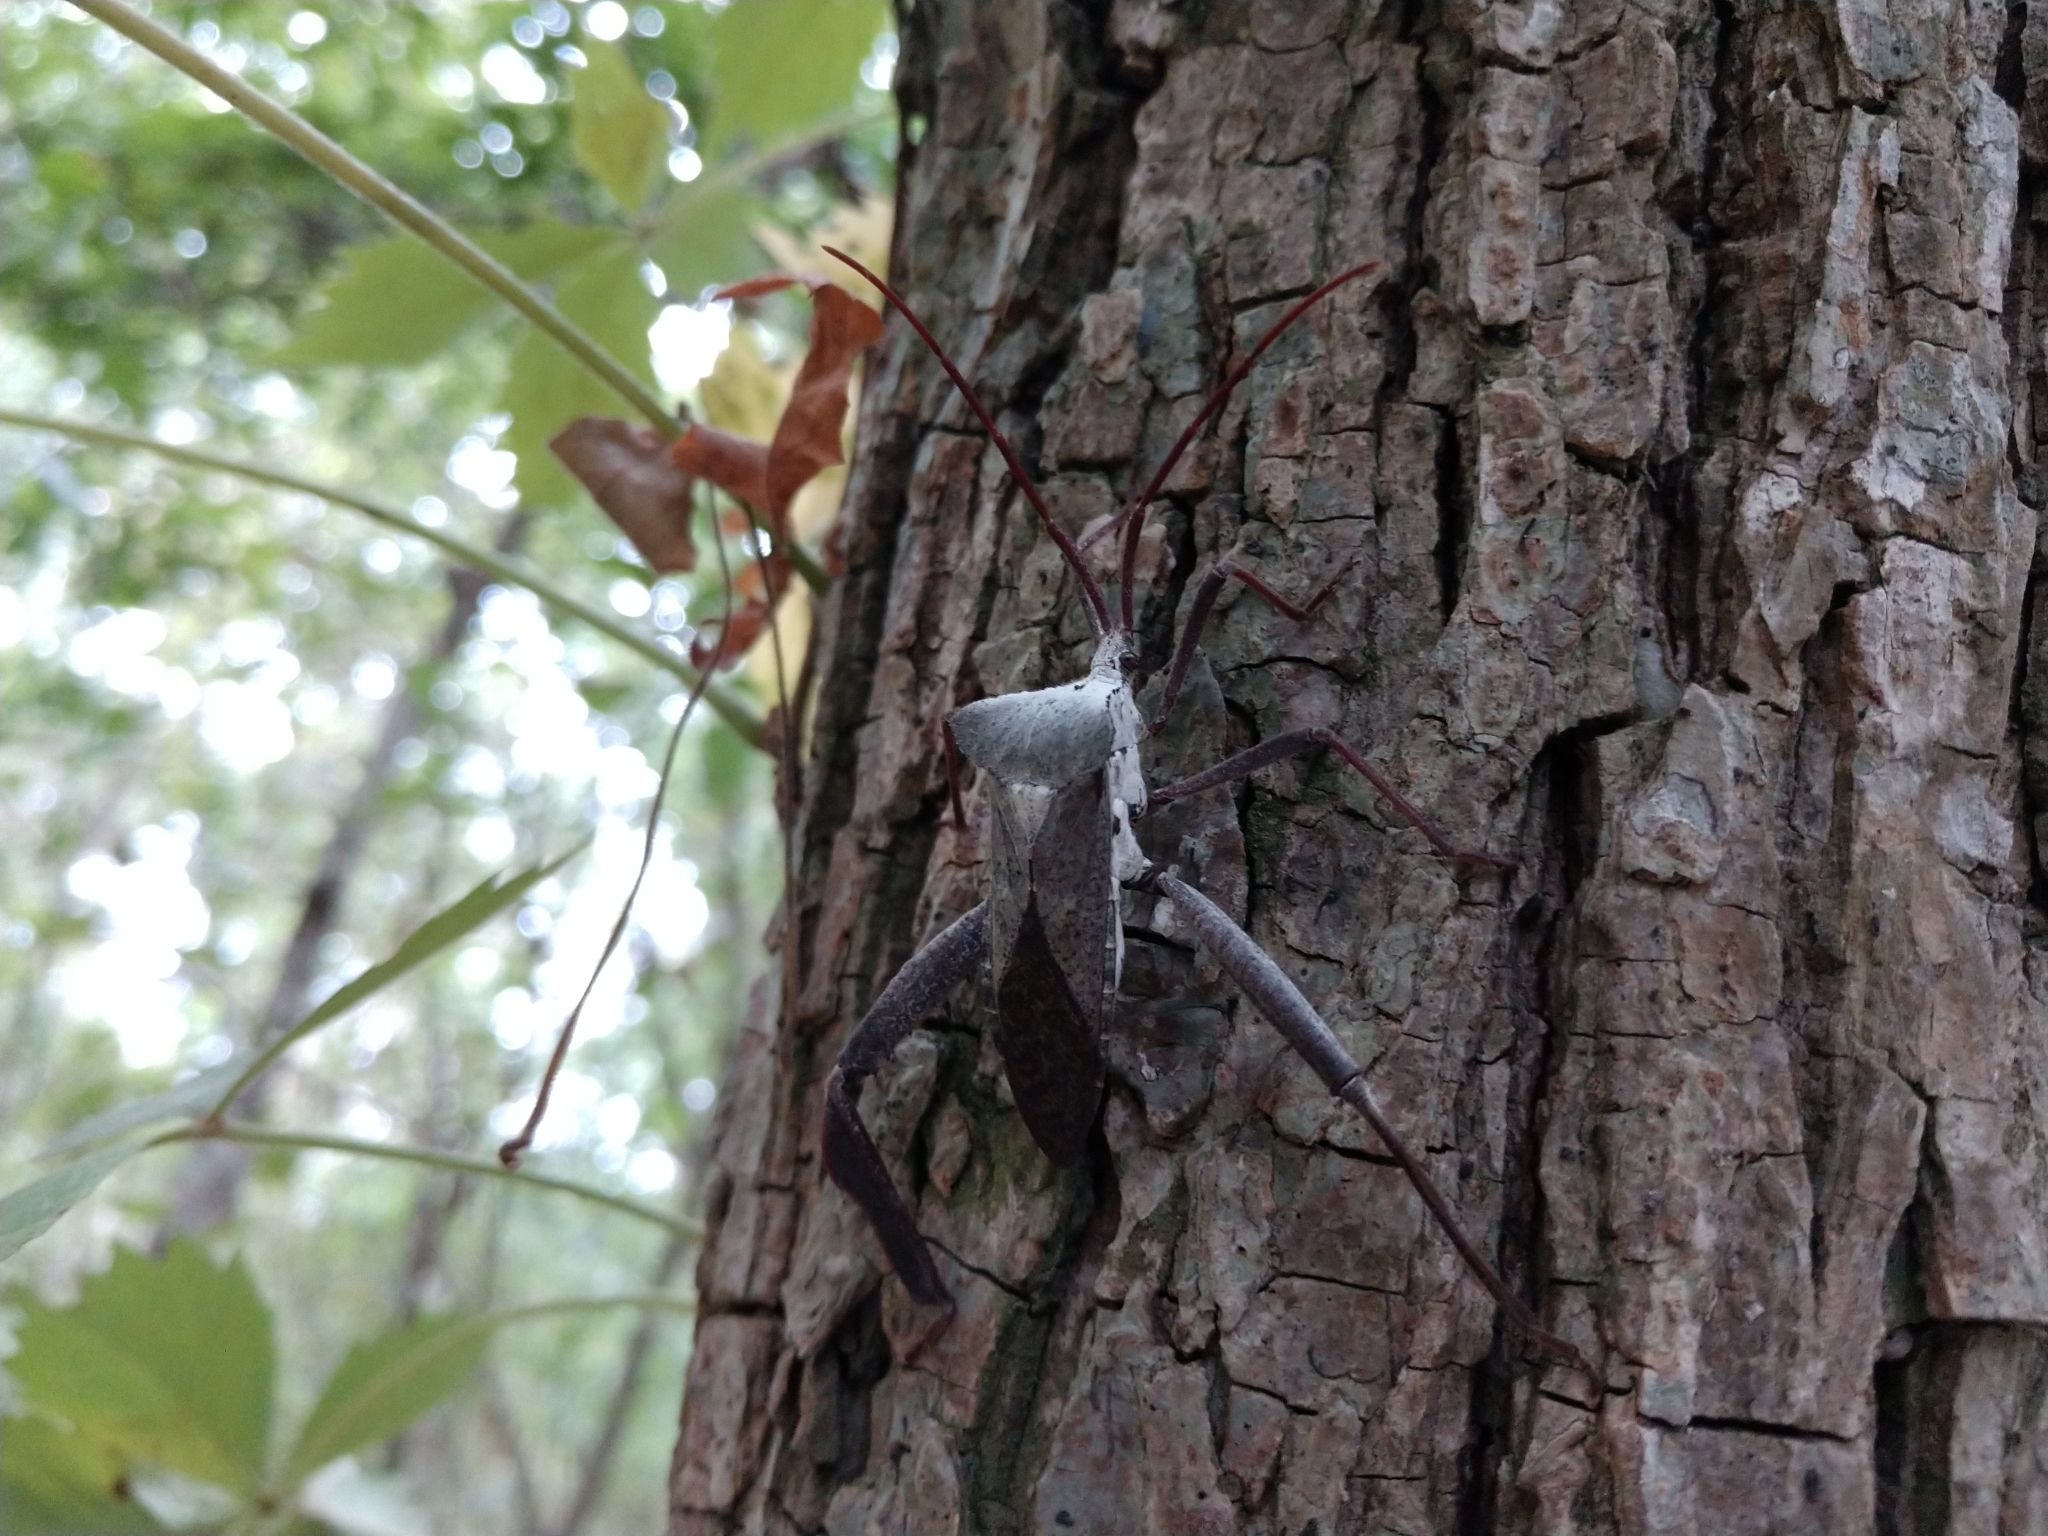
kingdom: Animalia
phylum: Arthropoda
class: Insecta
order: Hemiptera
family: Coreidae
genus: Acanthocephala
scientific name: Acanthocephala declivis
